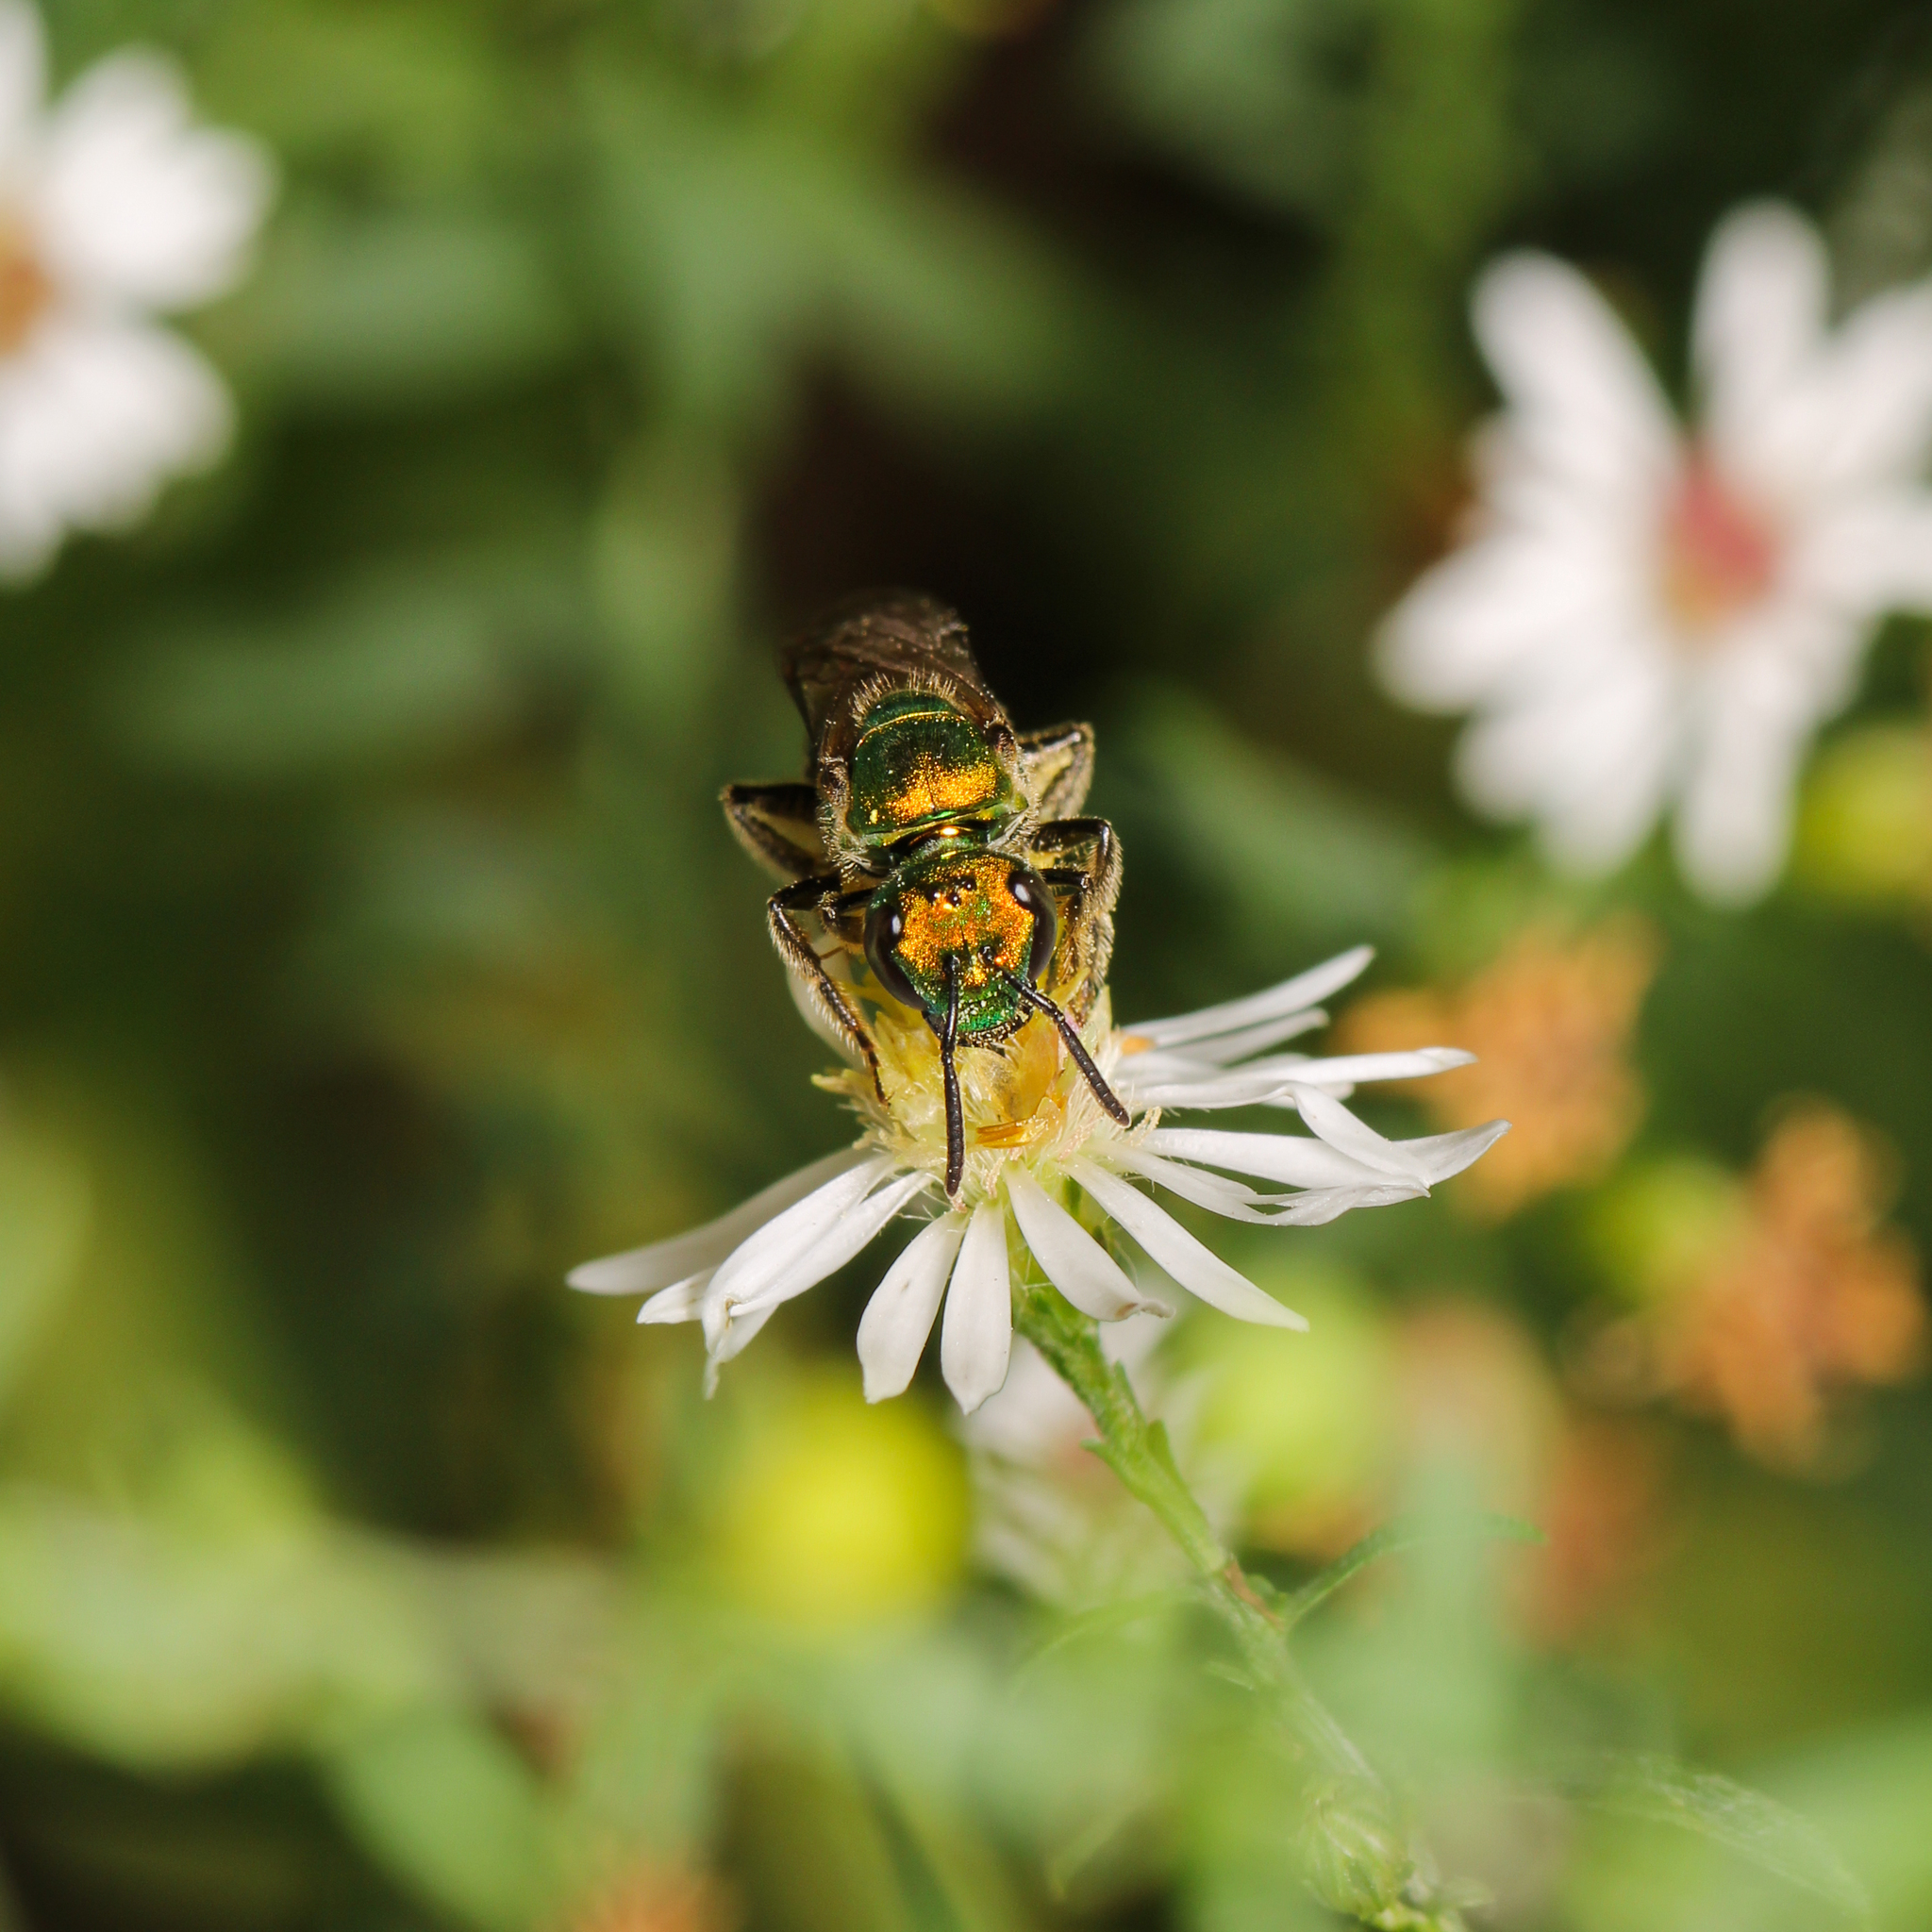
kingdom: Animalia
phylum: Arthropoda
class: Insecta
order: Hymenoptera
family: Halictidae
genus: Augochlora
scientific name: Augochlora pura
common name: Pure green sweat bee
